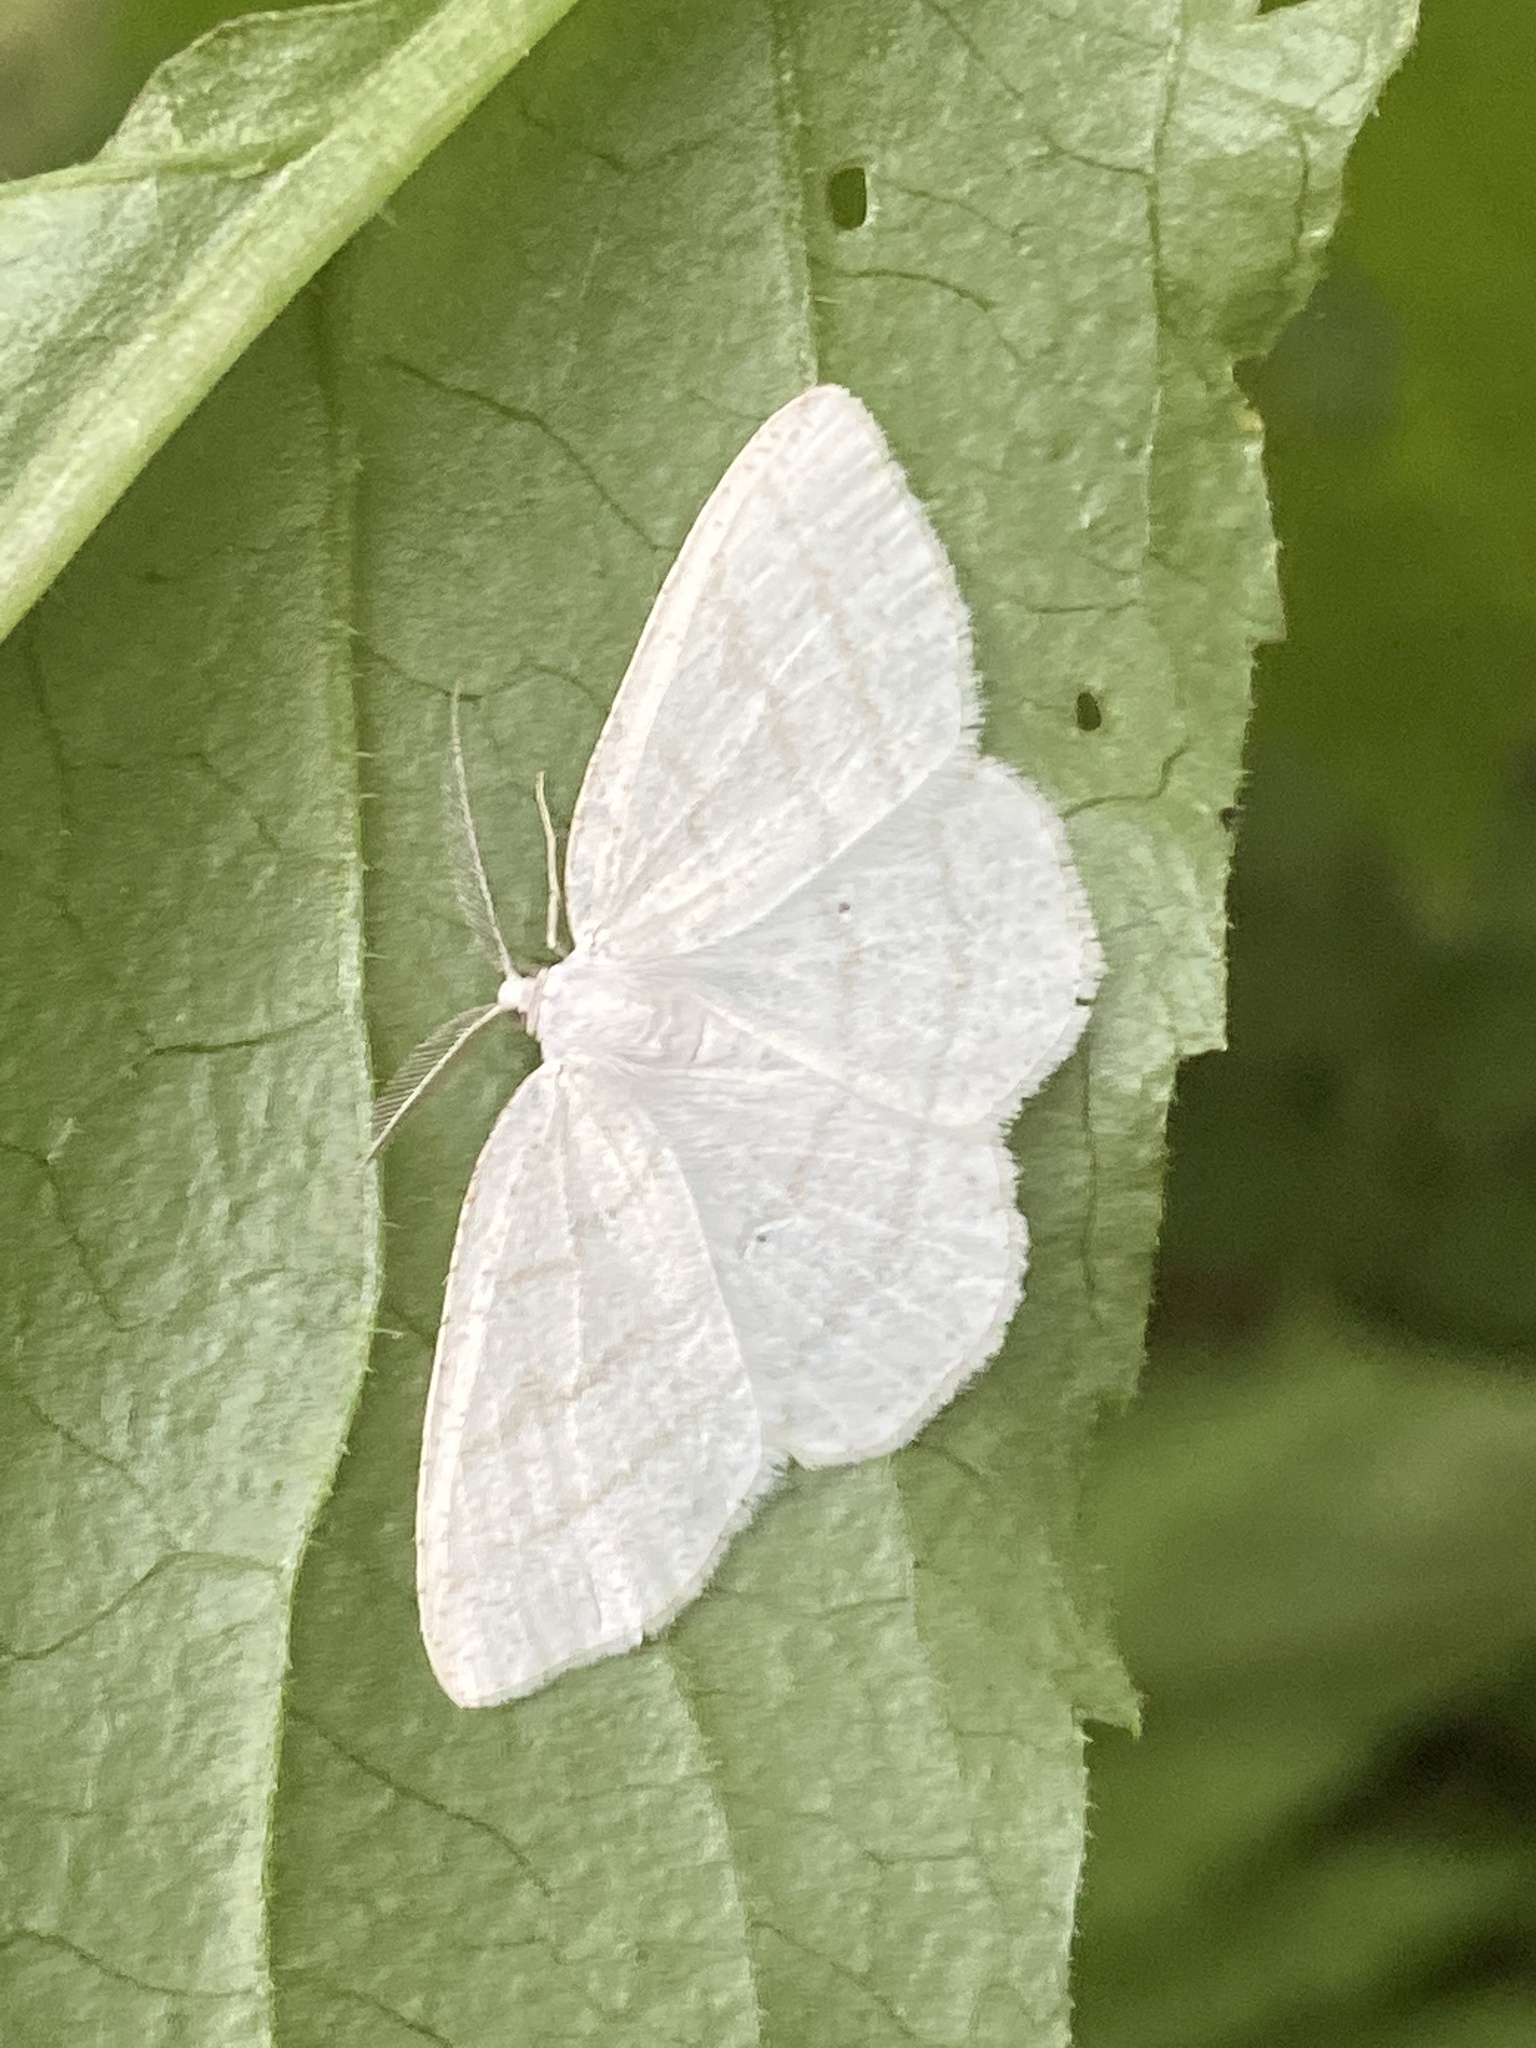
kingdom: Animalia
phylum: Arthropoda
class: Insecta
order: Lepidoptera
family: Geometridae
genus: Cabera
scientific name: Cabera pusaria
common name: Common white wave
